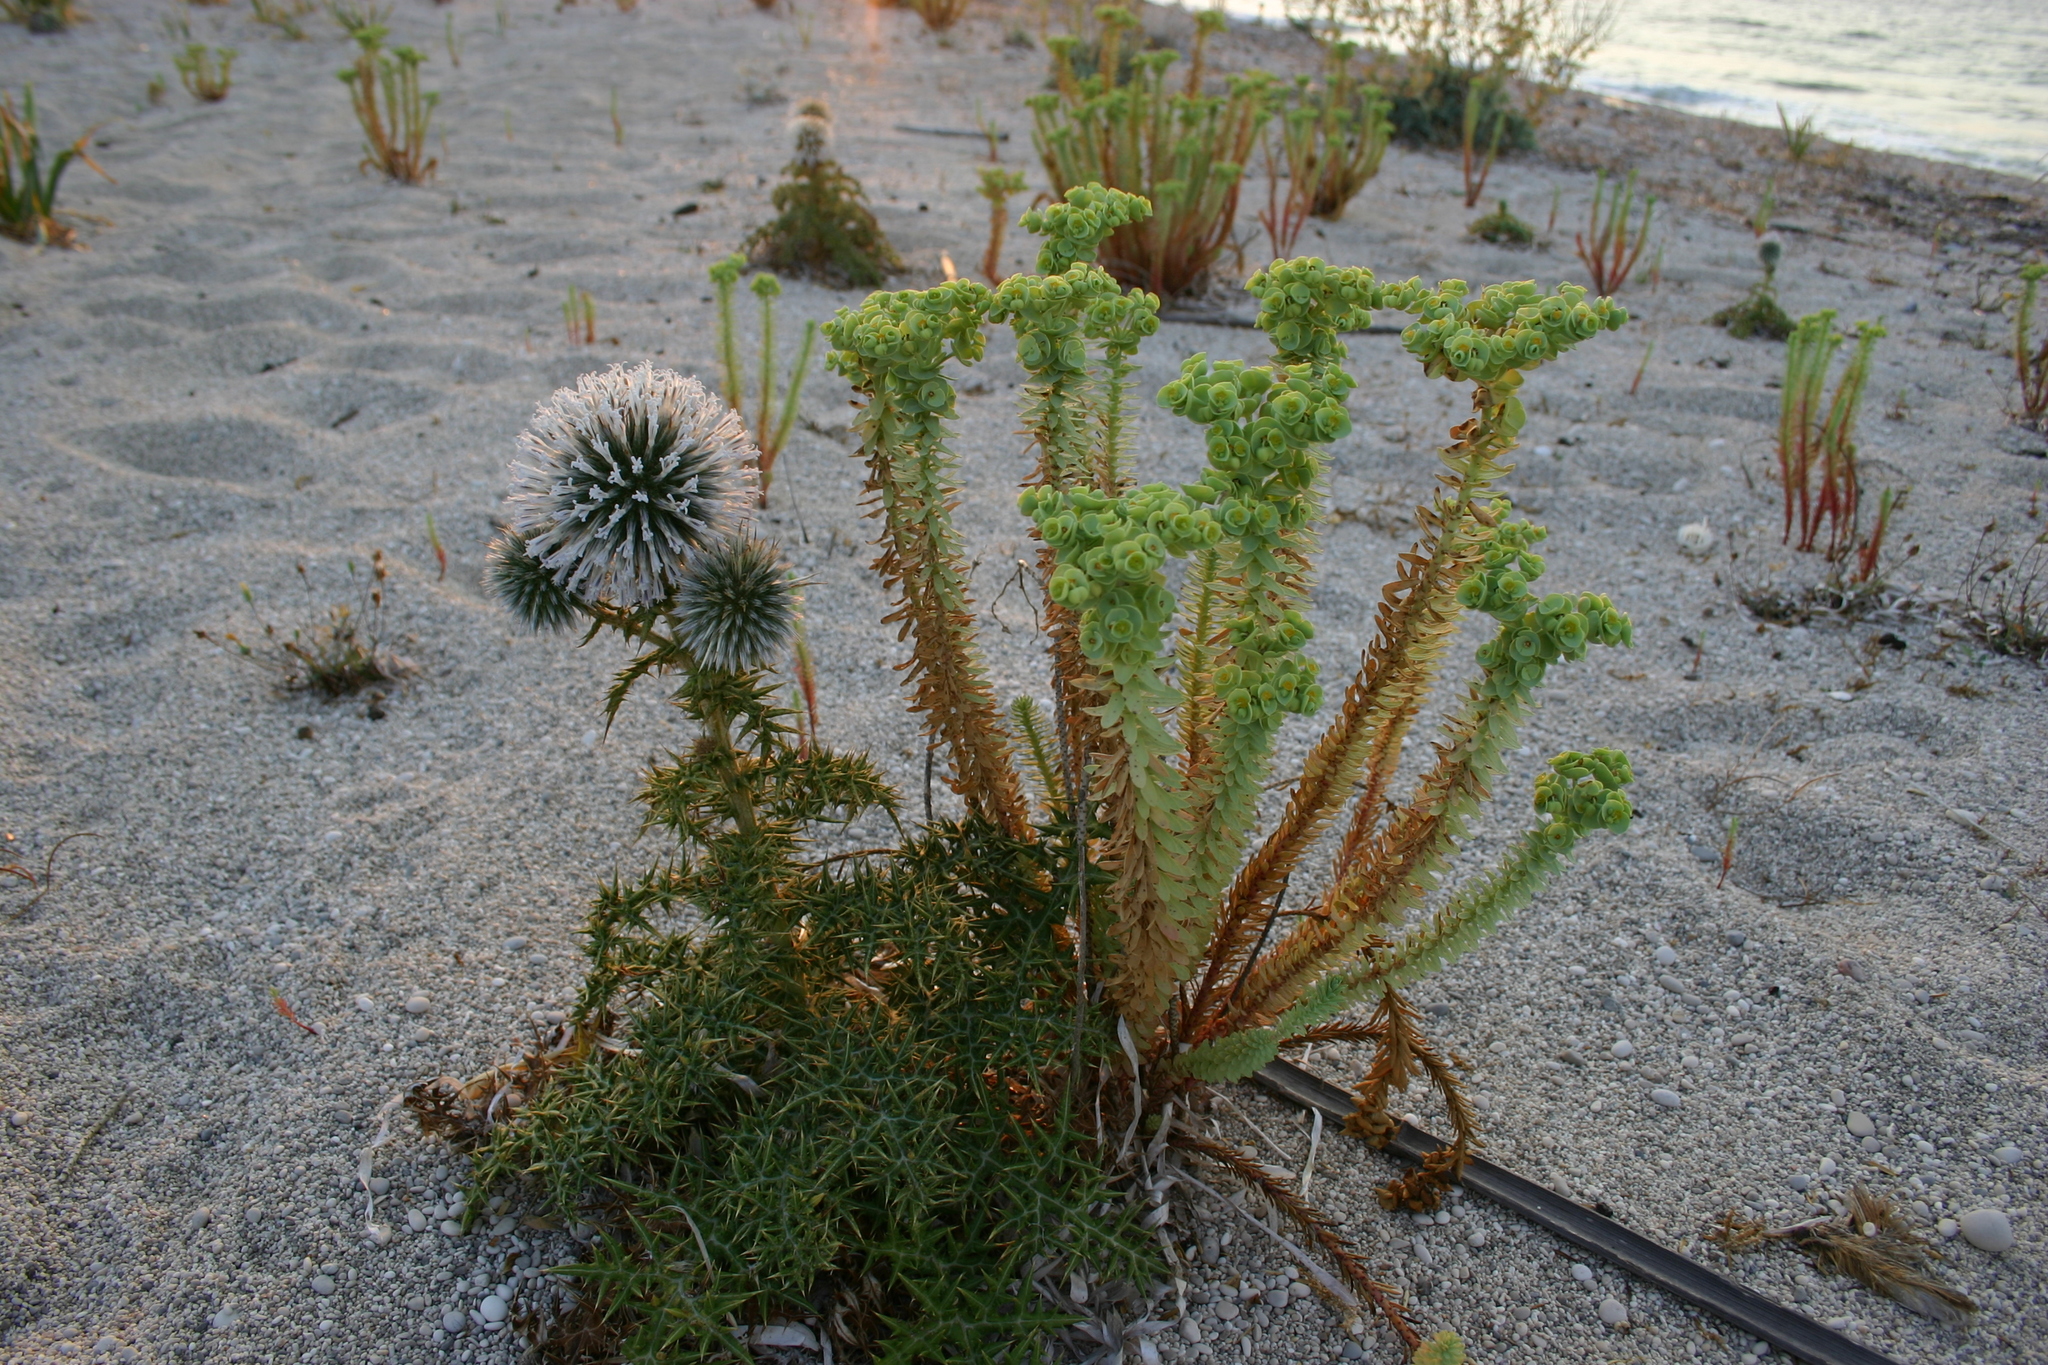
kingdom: Plantae
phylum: Tracheophyta
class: Magnoliopsida
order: Malpighiales
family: Euphorbiaceae
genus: Euphorbia
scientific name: Euphorbia paralias
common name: Sea spurge
